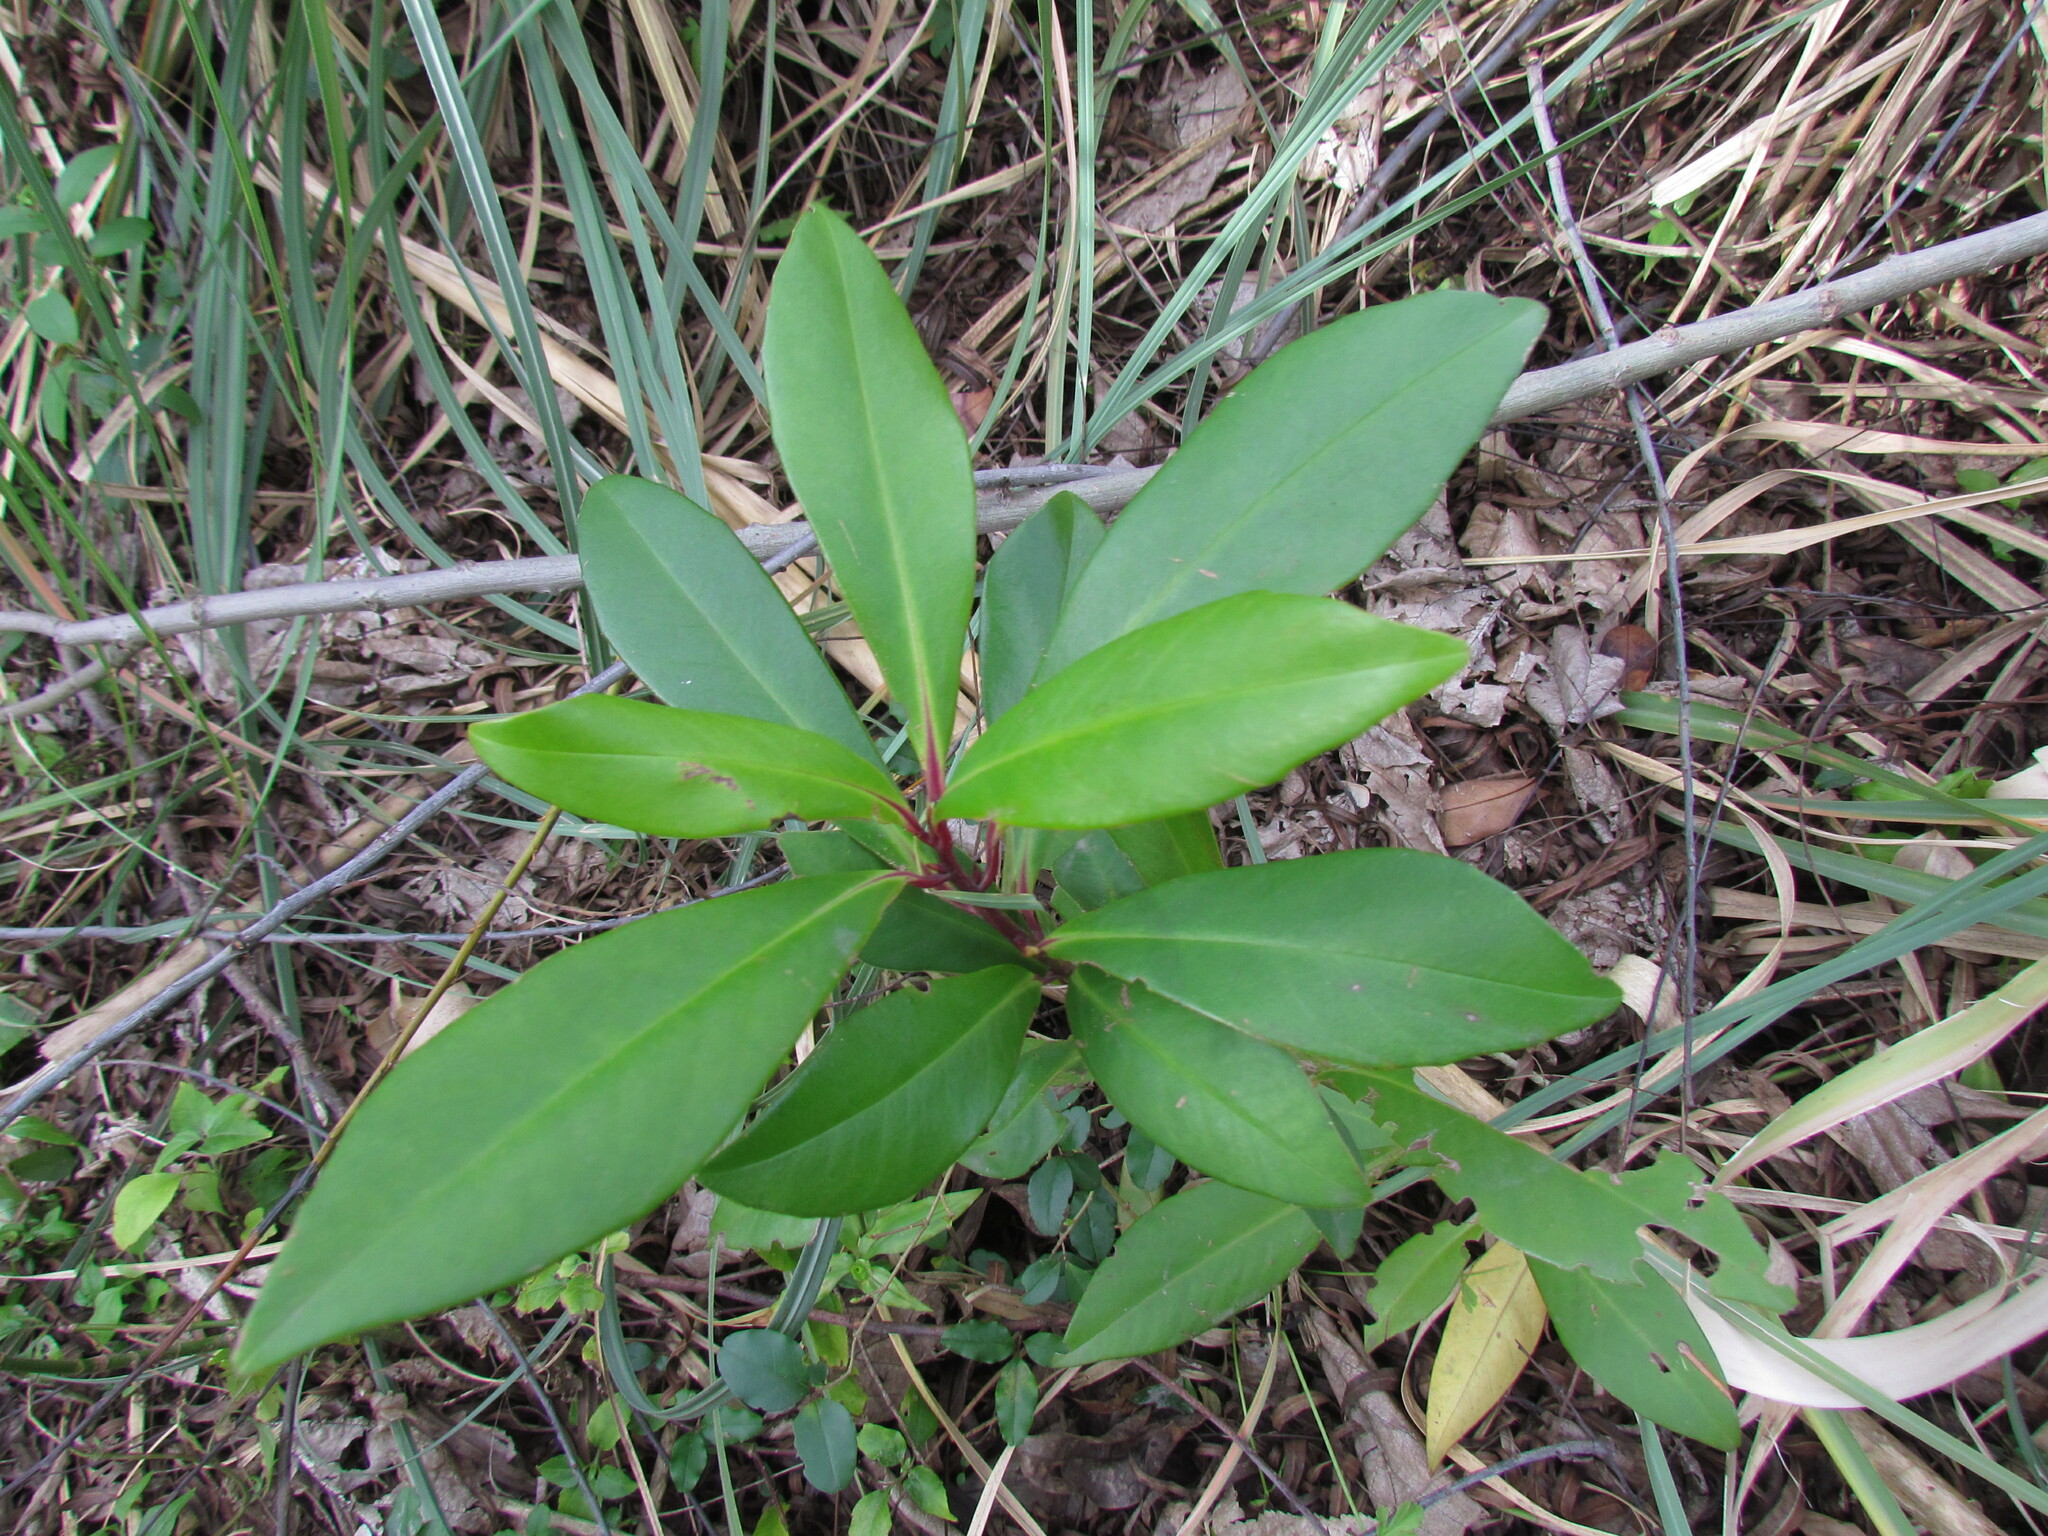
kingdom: Plantae
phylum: Tracheophyta
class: Magnoliopsida
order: Ericales
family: Primulaceae
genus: Myrsine
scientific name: Myrsine lorentziana
